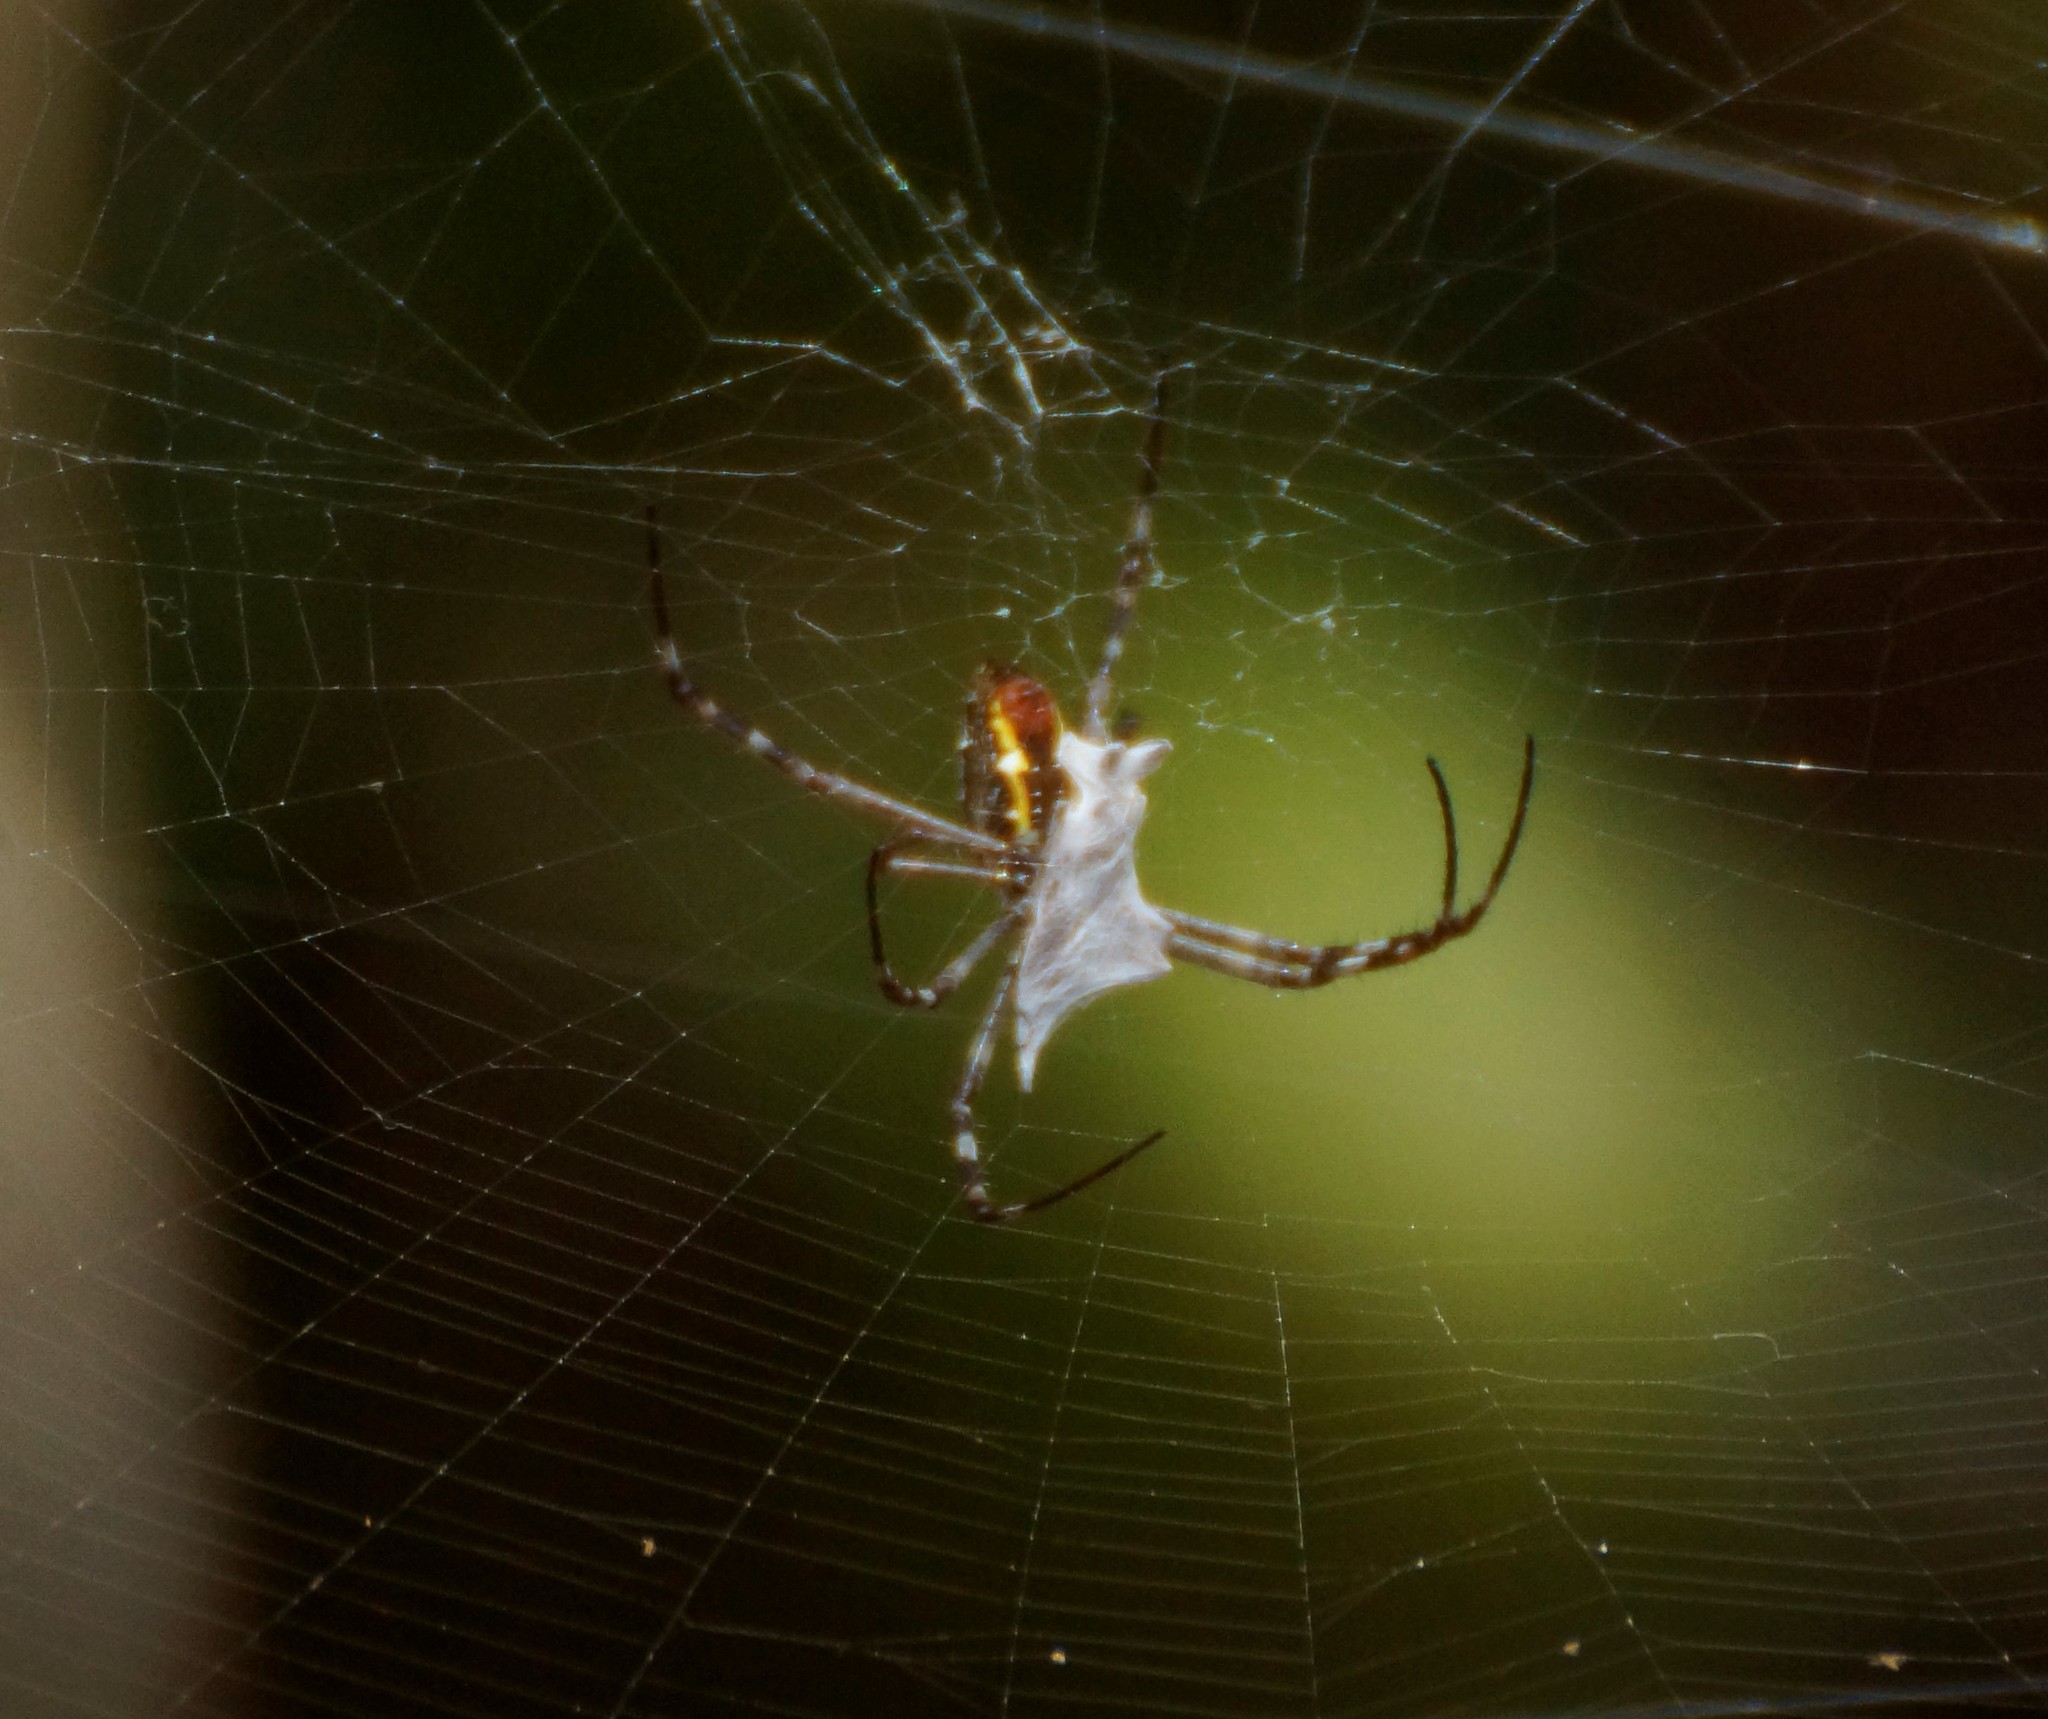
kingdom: Animalia
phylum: Arthropoda
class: Arachnida
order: Araneae
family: Araneidae
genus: Argiope
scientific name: Argiope radon
